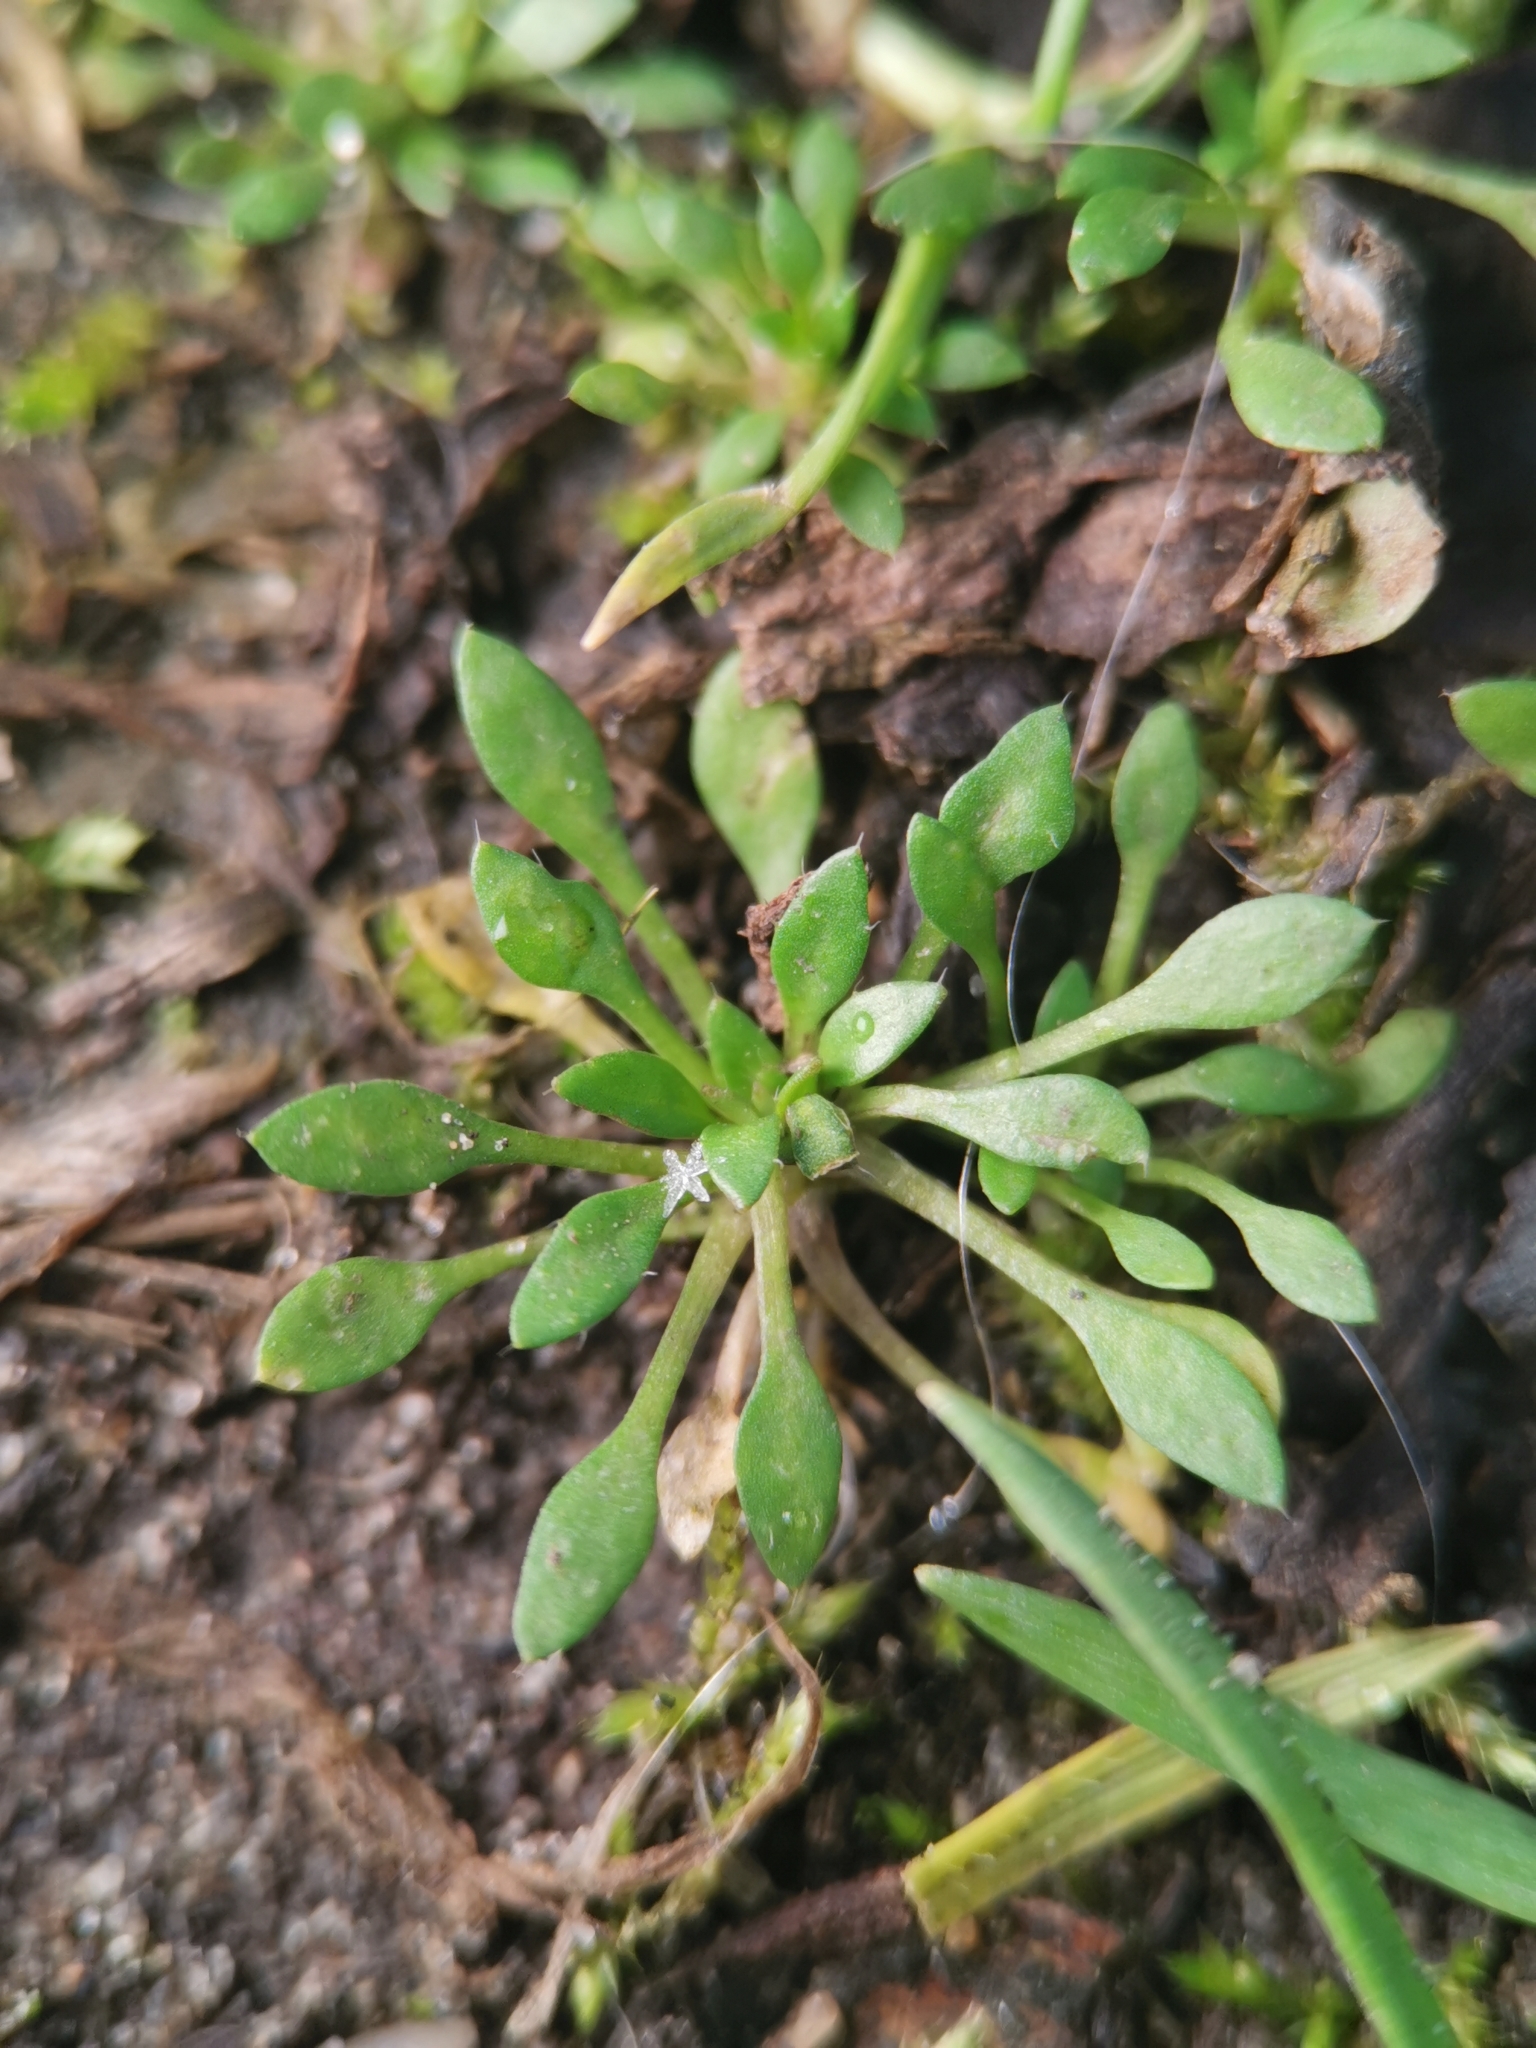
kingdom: Plantae
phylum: Tracheophyta
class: Magnoliopsida
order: Brassicales
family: Brassicaceae
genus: Draba
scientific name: Draba verna
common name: Spring draba
